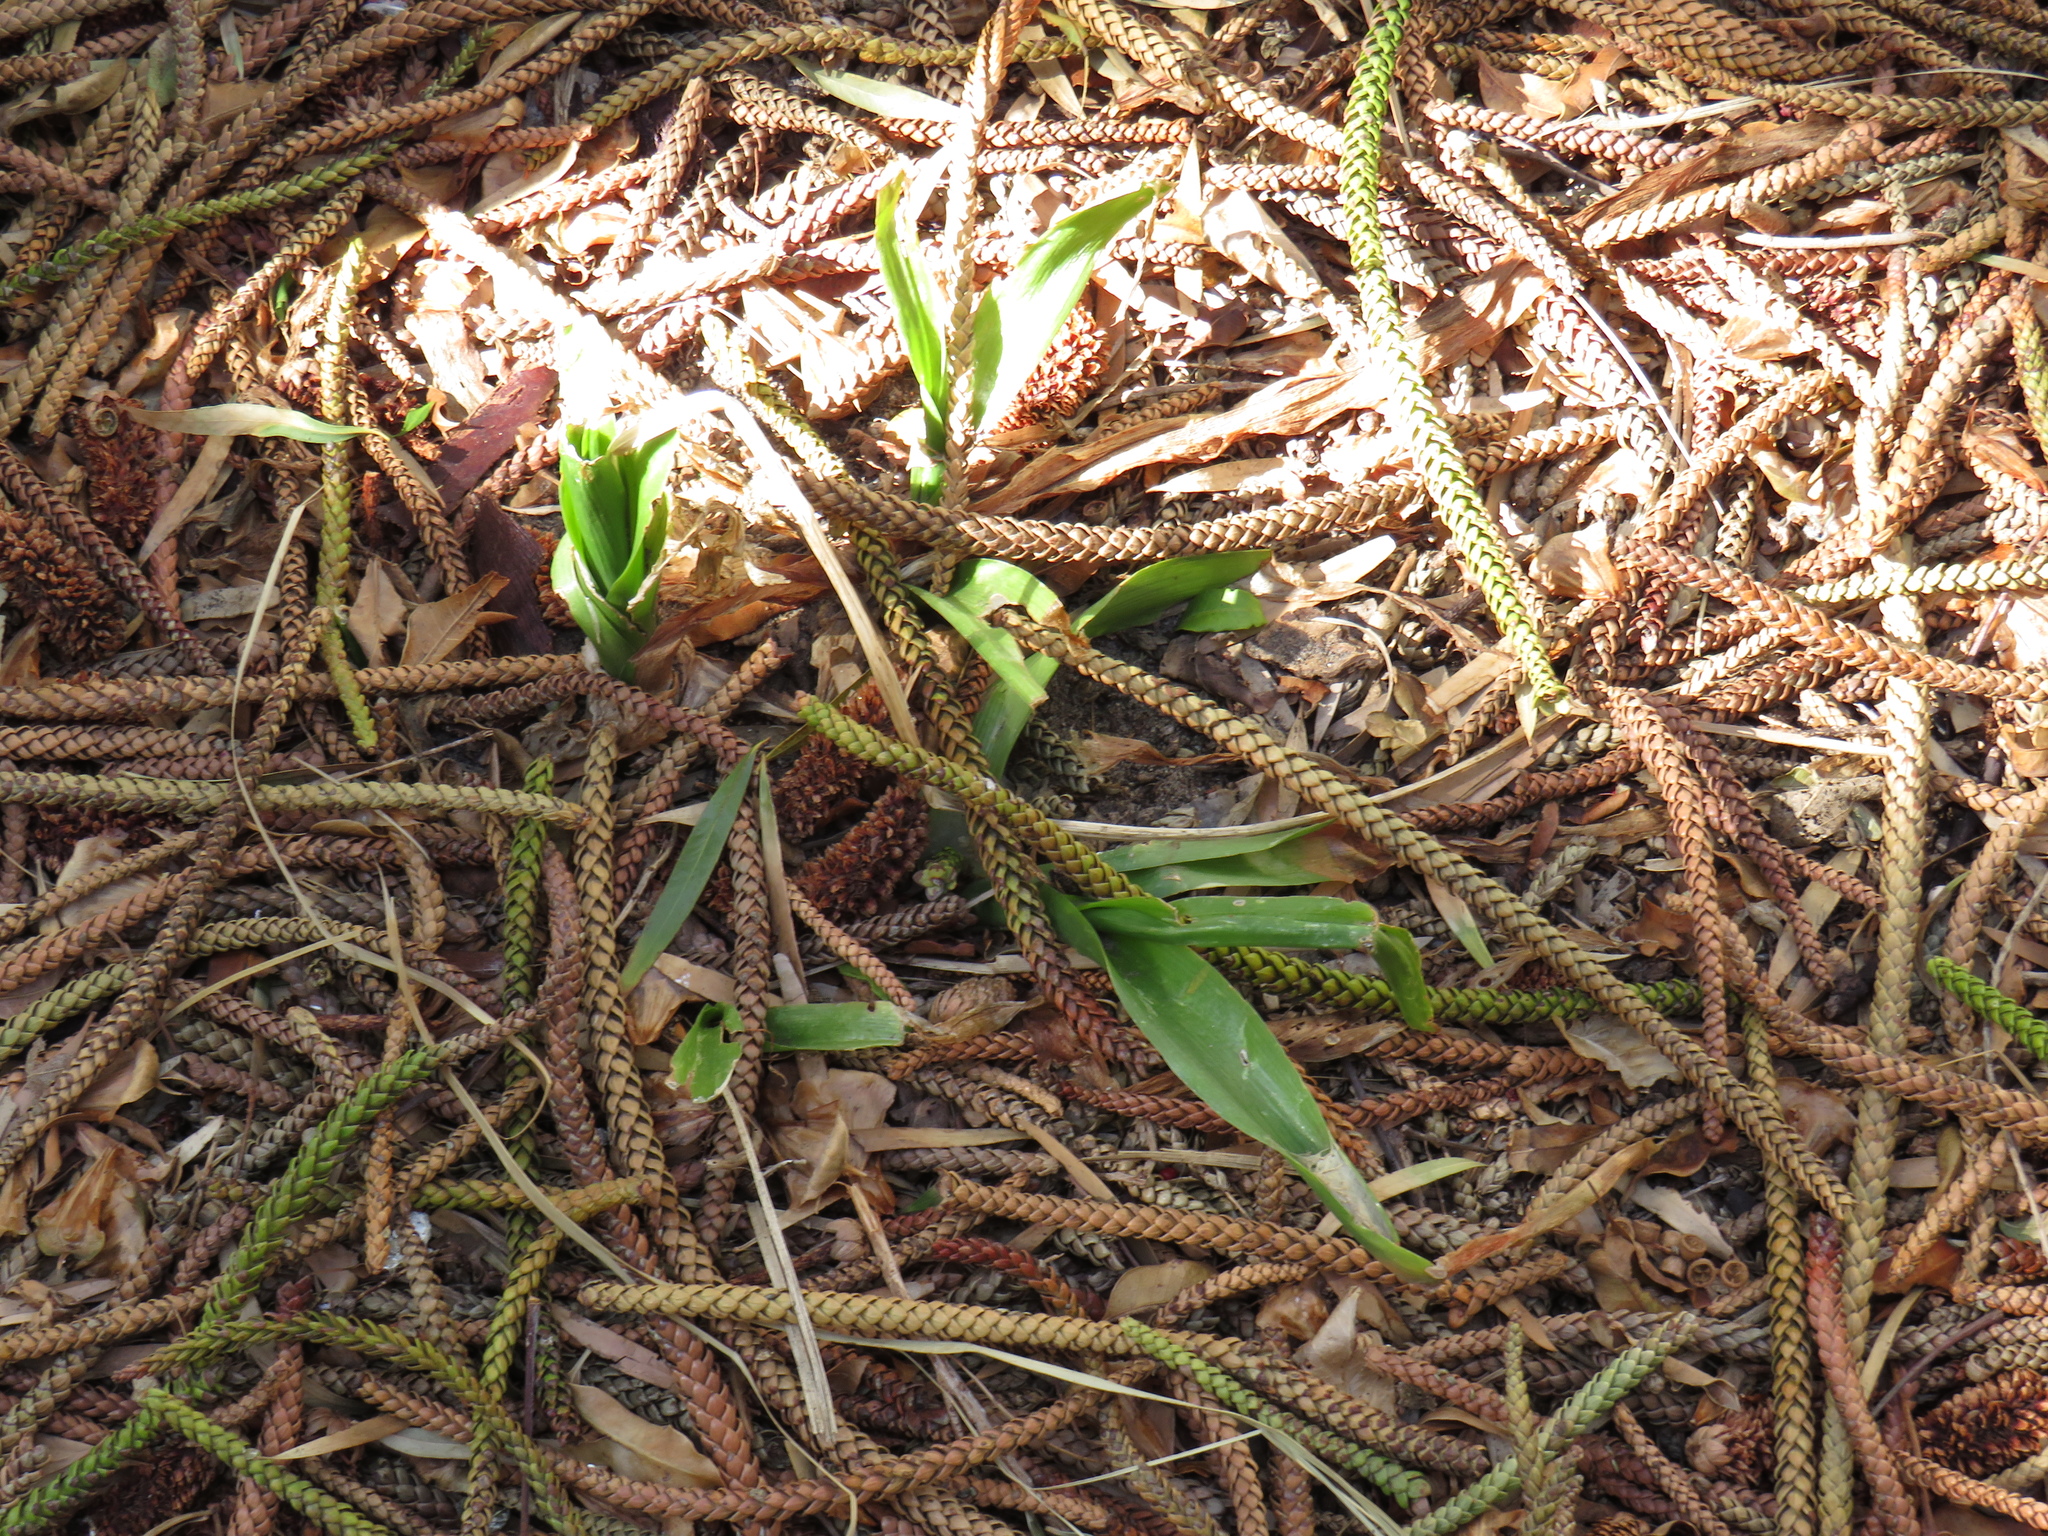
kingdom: Plantae
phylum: Tracheophyta
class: Liliopsida
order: Asparagales
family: Asparagaceae
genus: Albuca
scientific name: Albuca bracteata
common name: Sea-onion
